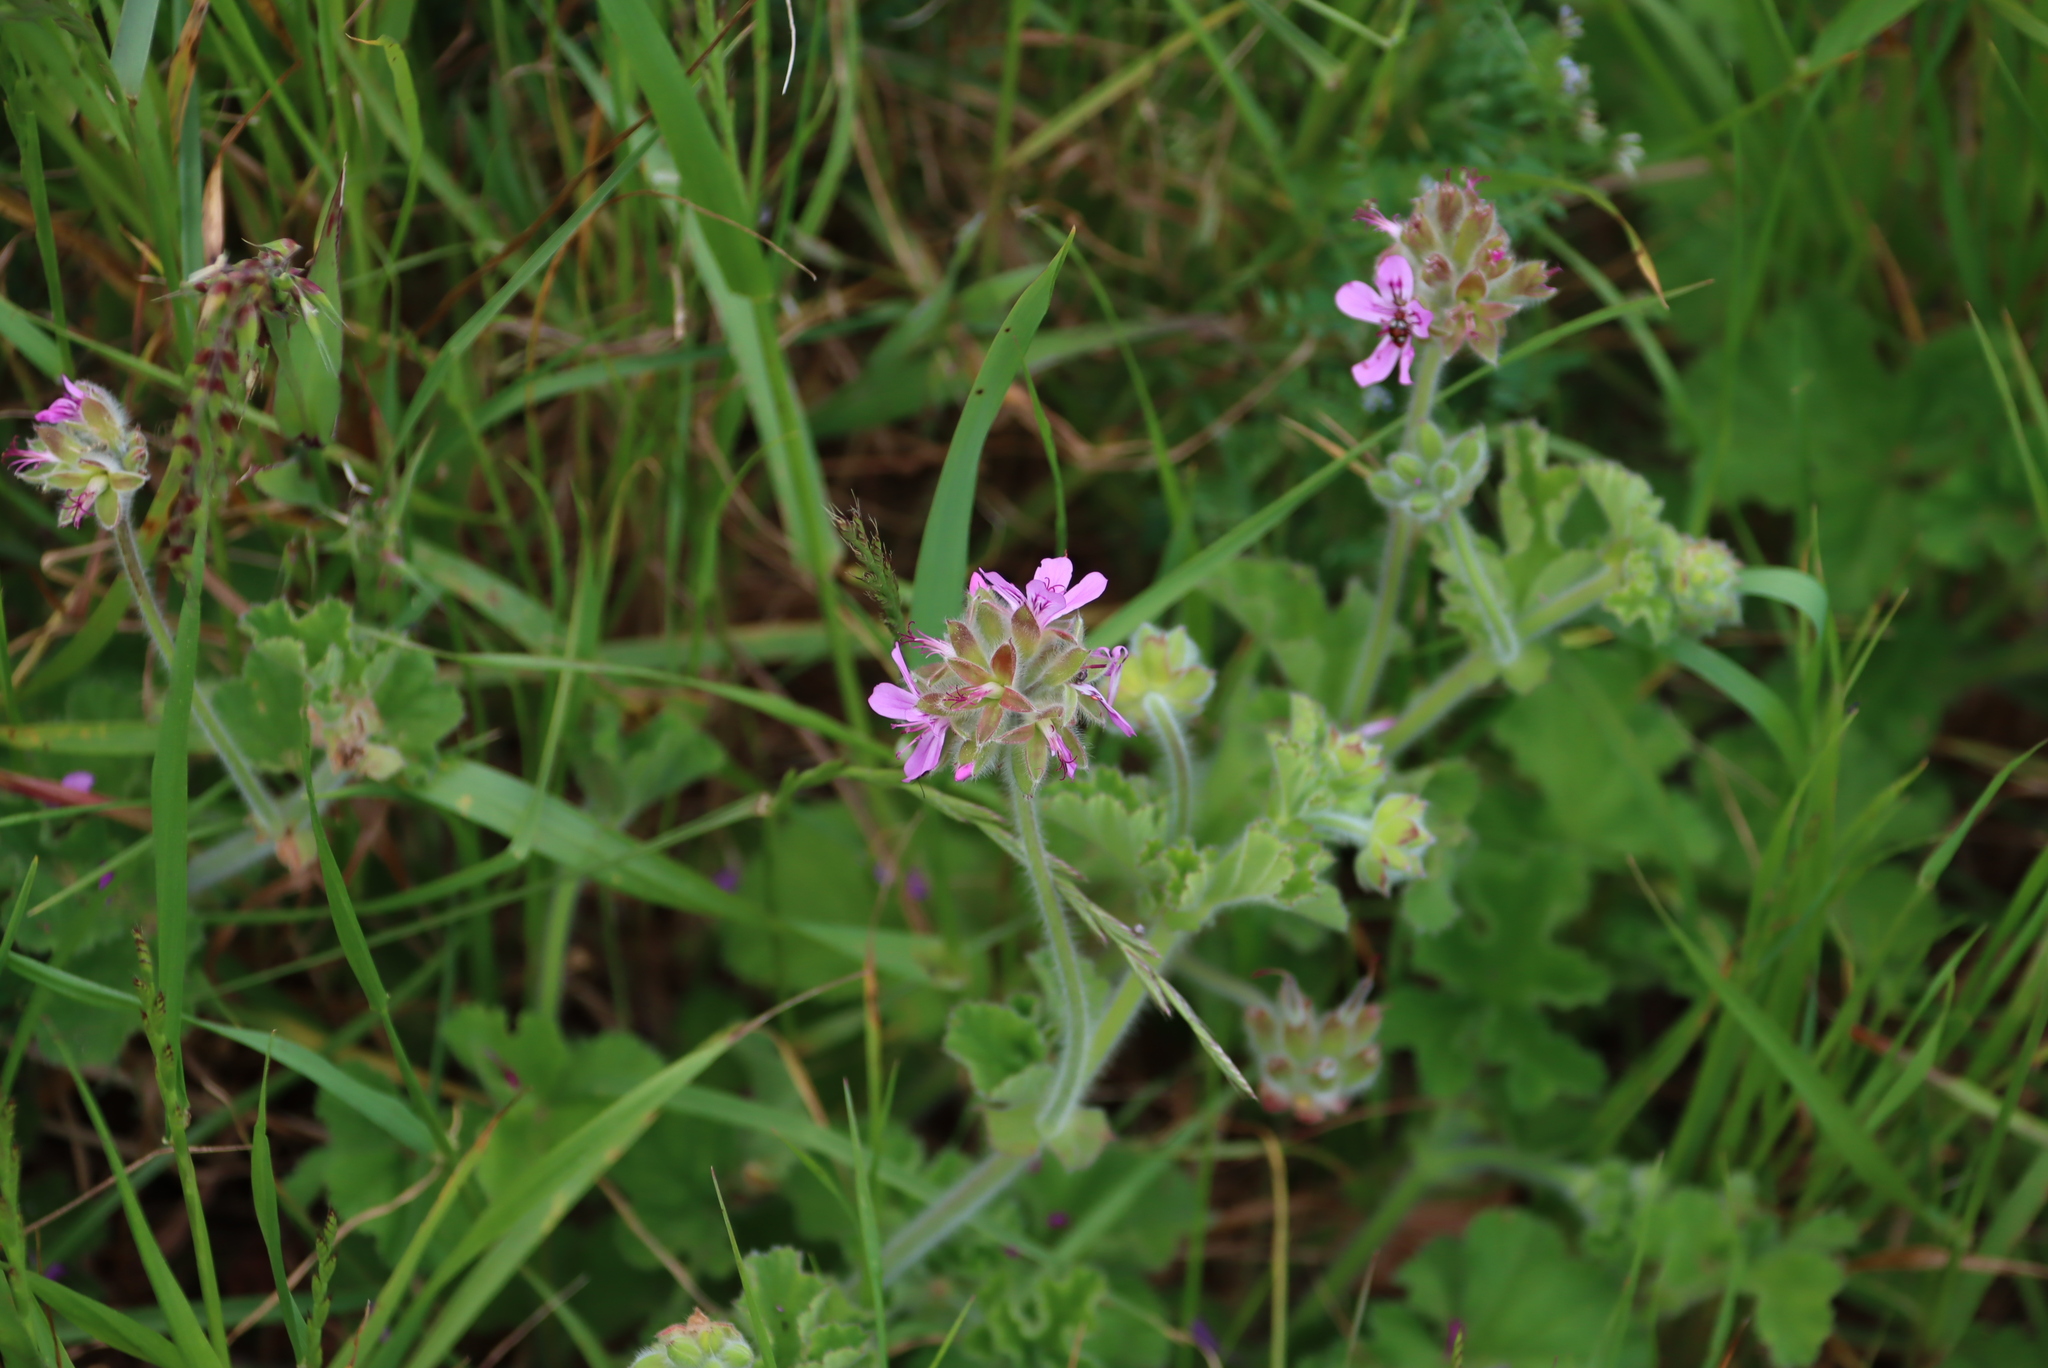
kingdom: Plantae
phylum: Tracheophyta
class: Magnoliopsida
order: Geraniales
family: Geraniaceae
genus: Pelargonium
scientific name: Pelargonium capitatum
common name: Rose scented geranium
